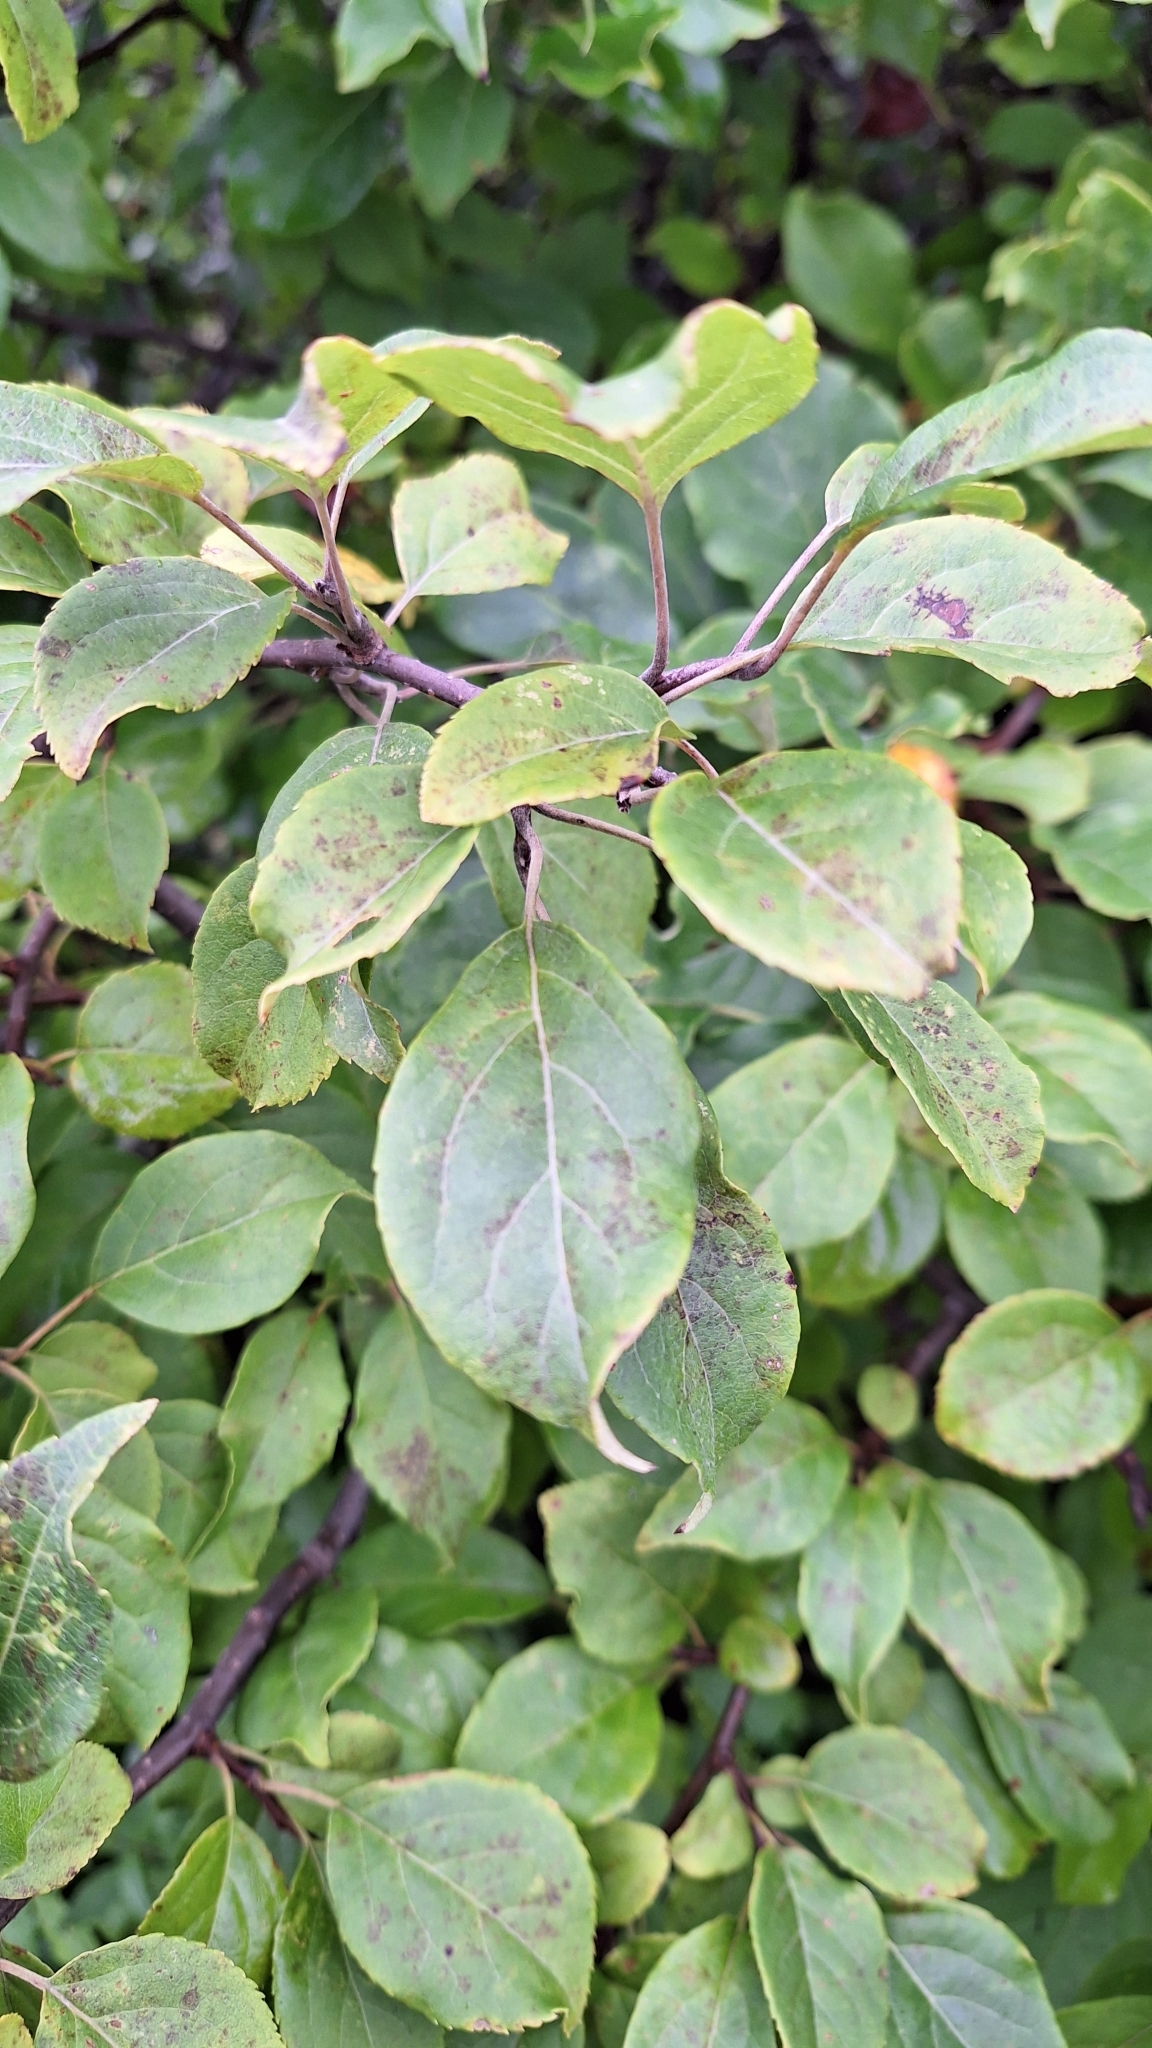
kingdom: Plantae
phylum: Tracheophyta
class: Magnoliopsida
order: Rosales
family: Rosaceae
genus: Malus
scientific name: Malus mandshurica
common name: Siberian crabapple
